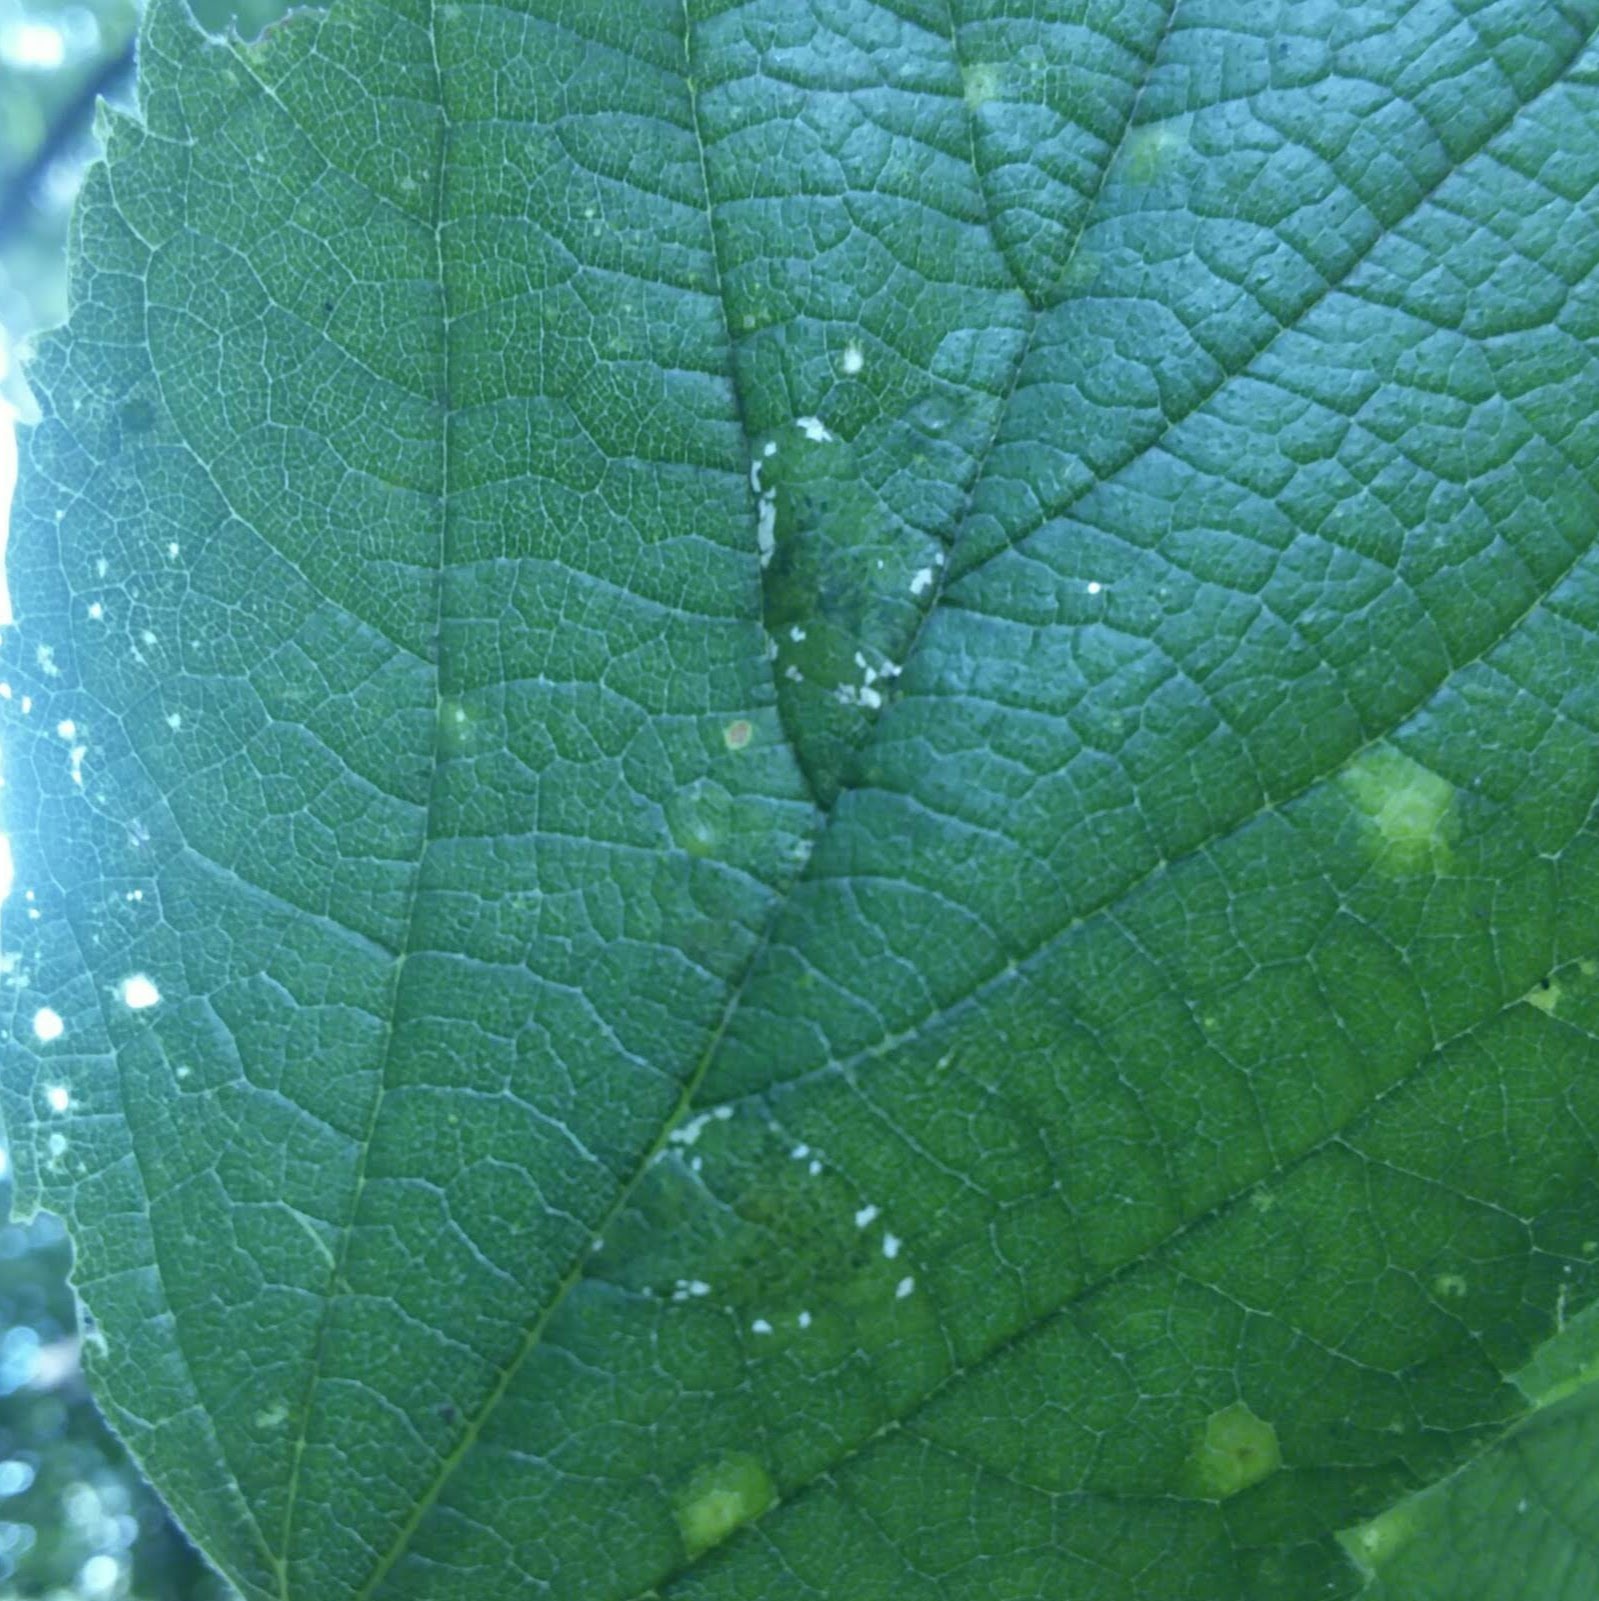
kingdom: Animalia
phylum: Arthropoda
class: Insecta
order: Lepidoptera
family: Gracillariidae
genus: Phyllonorycter
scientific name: Phyllonorycter celtifoliella
